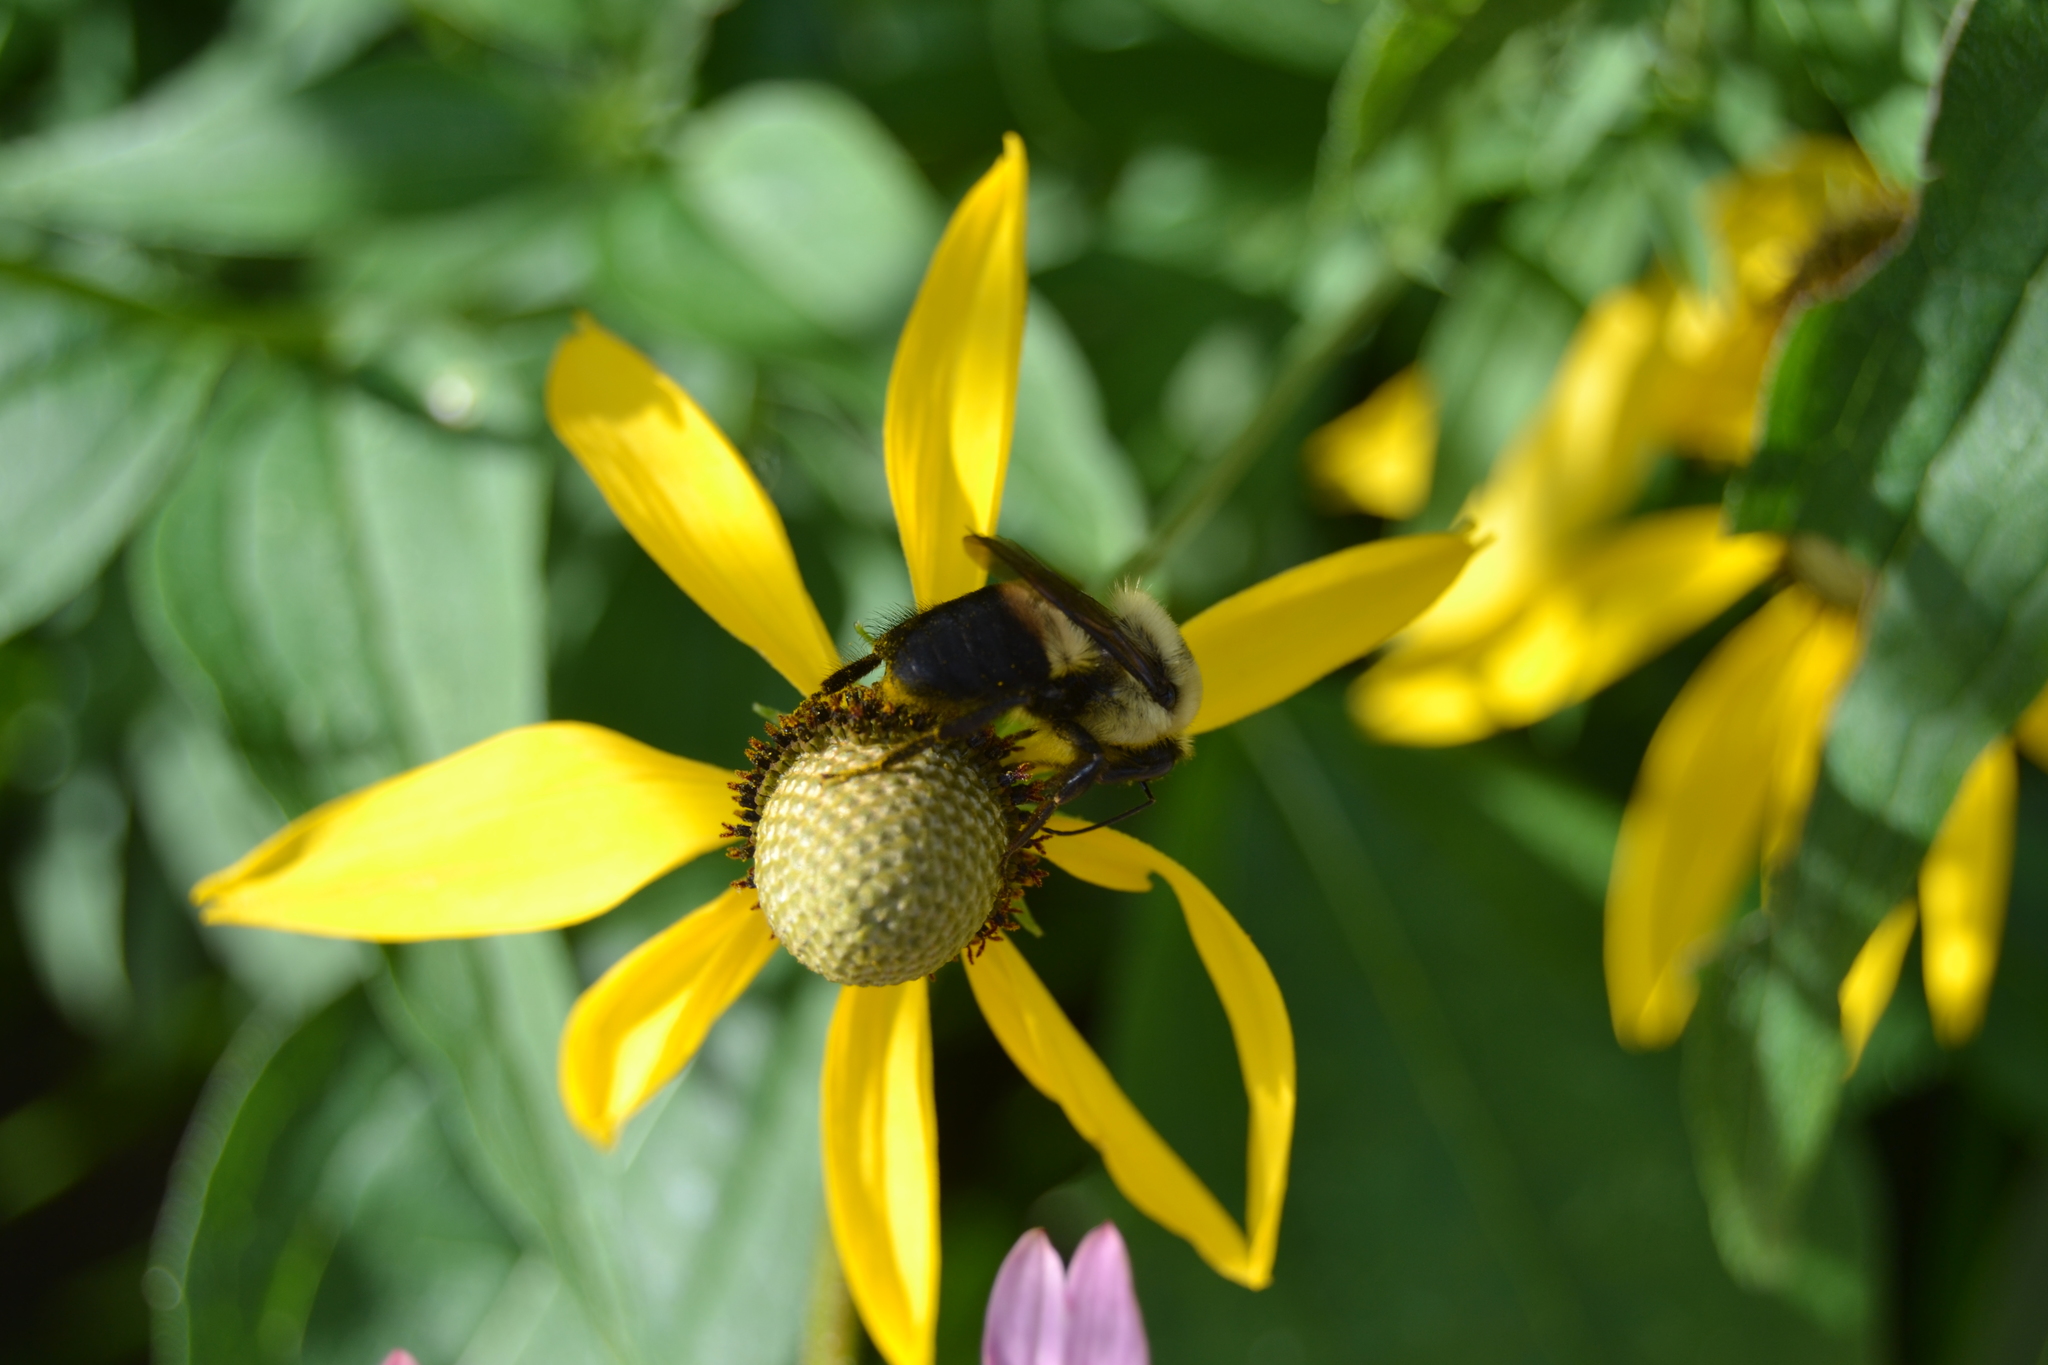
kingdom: Animalia
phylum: Arthropoda
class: Insecta
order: Hymenoptera
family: Apidae
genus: Bombus
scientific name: Bombus griseocollis
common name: Brown-belted bumble bee
